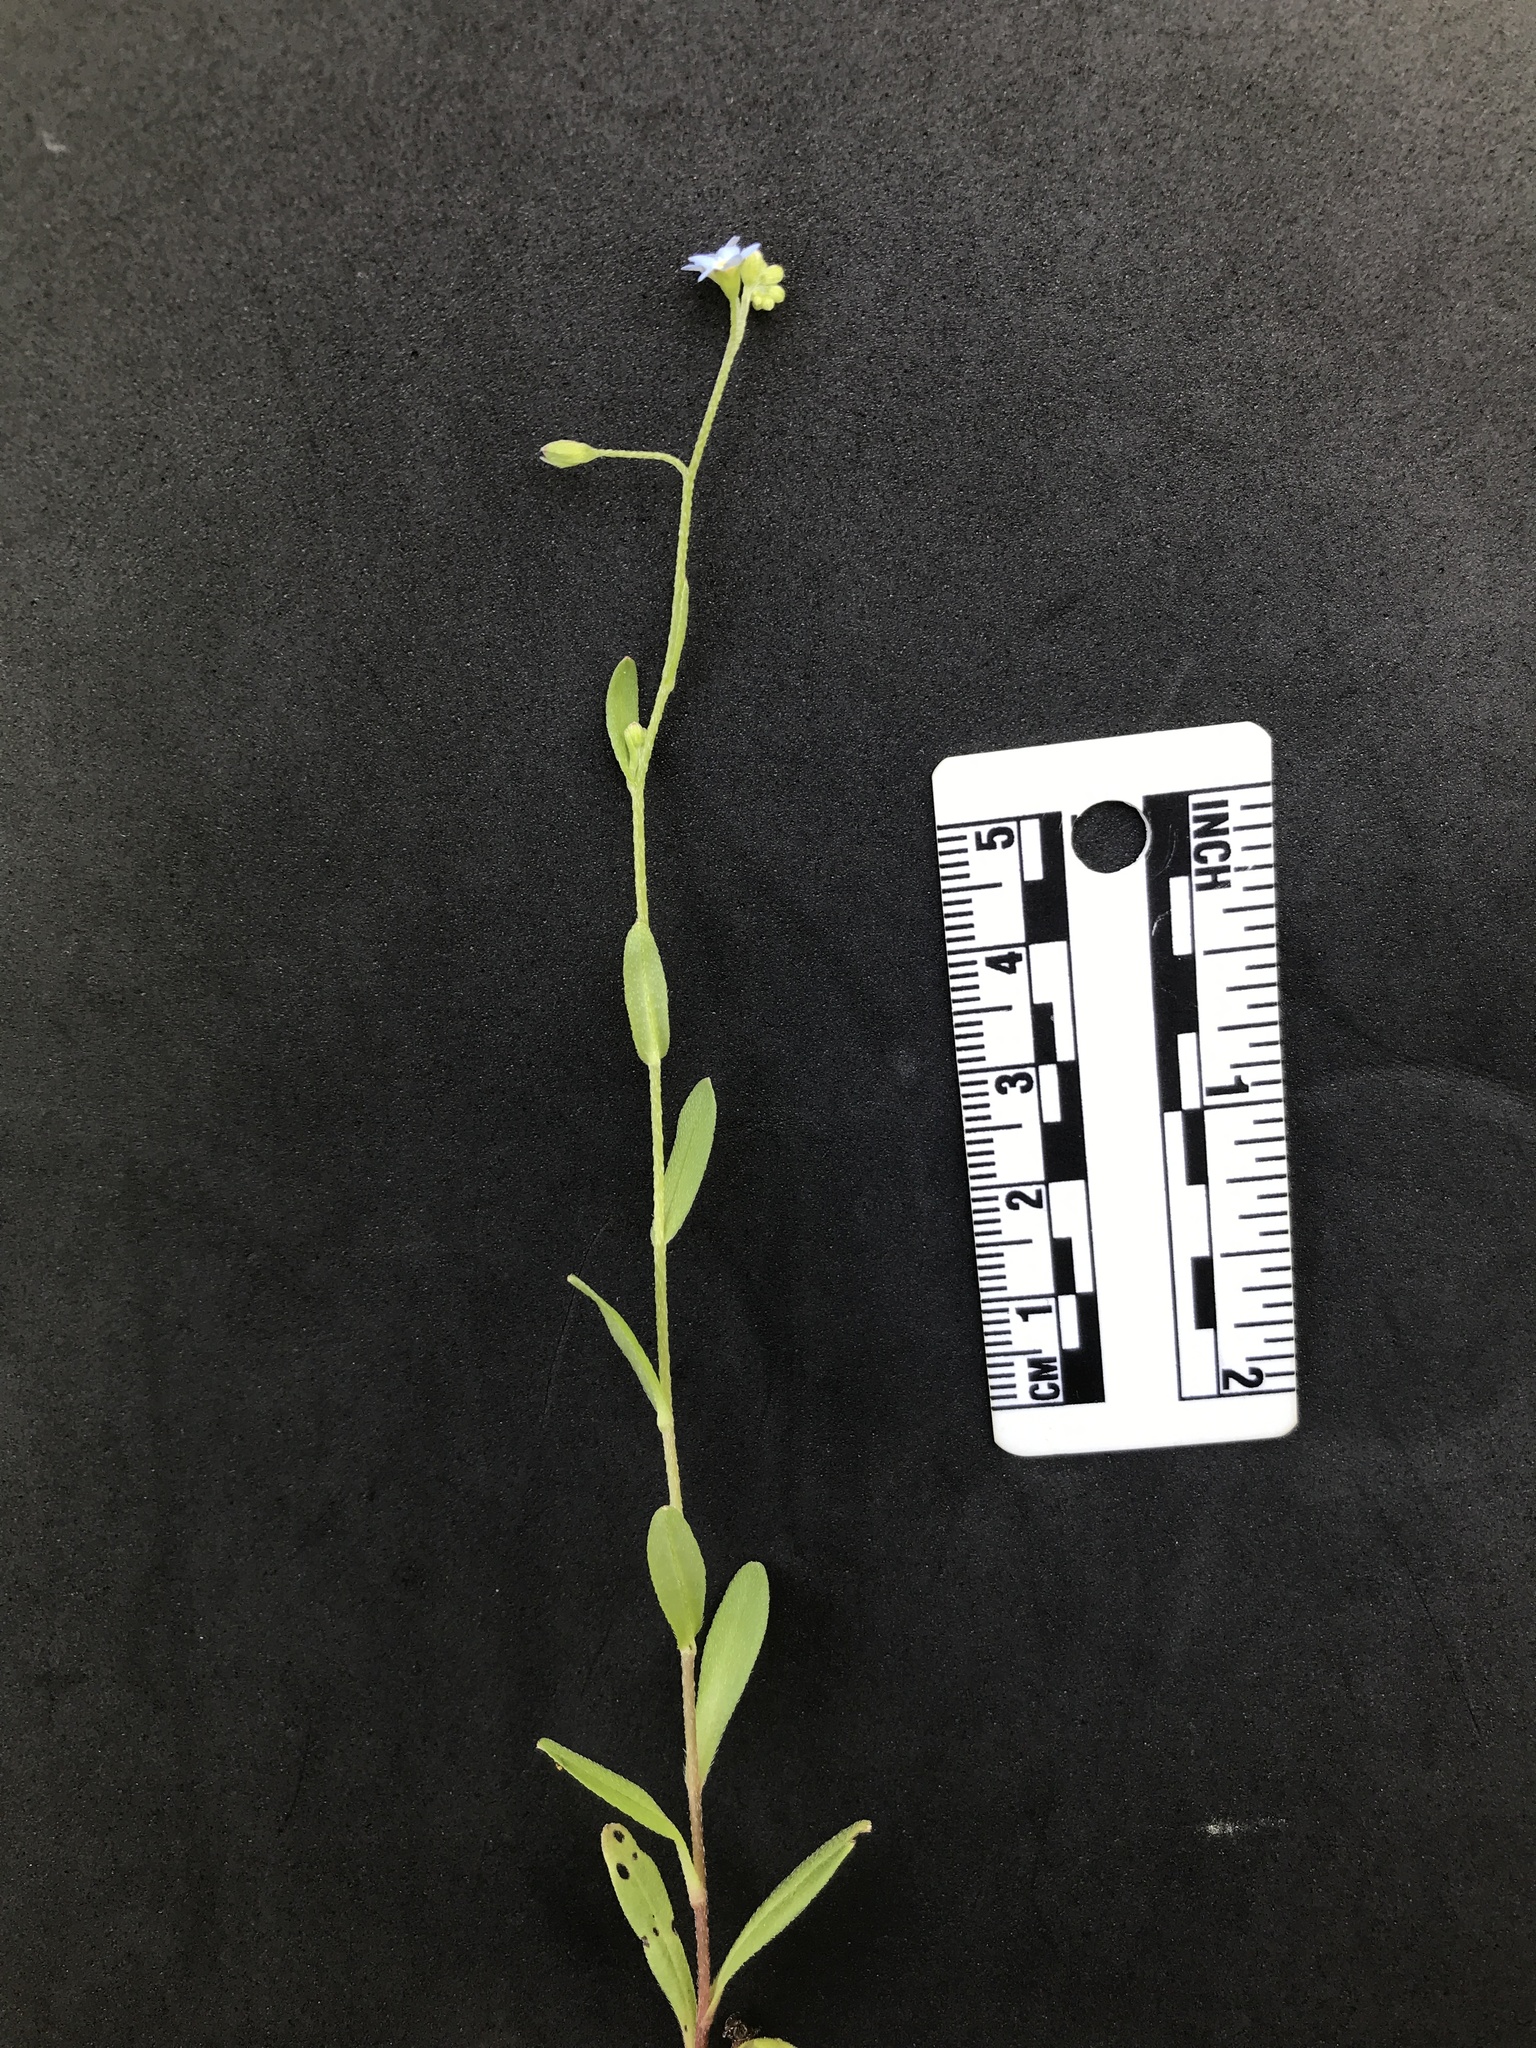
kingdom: Plantae
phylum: Tracheophyta
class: Magnoliopsida
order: Boraginales
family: Boraginaceae
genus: Myosotis
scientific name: Myosotis laxa
